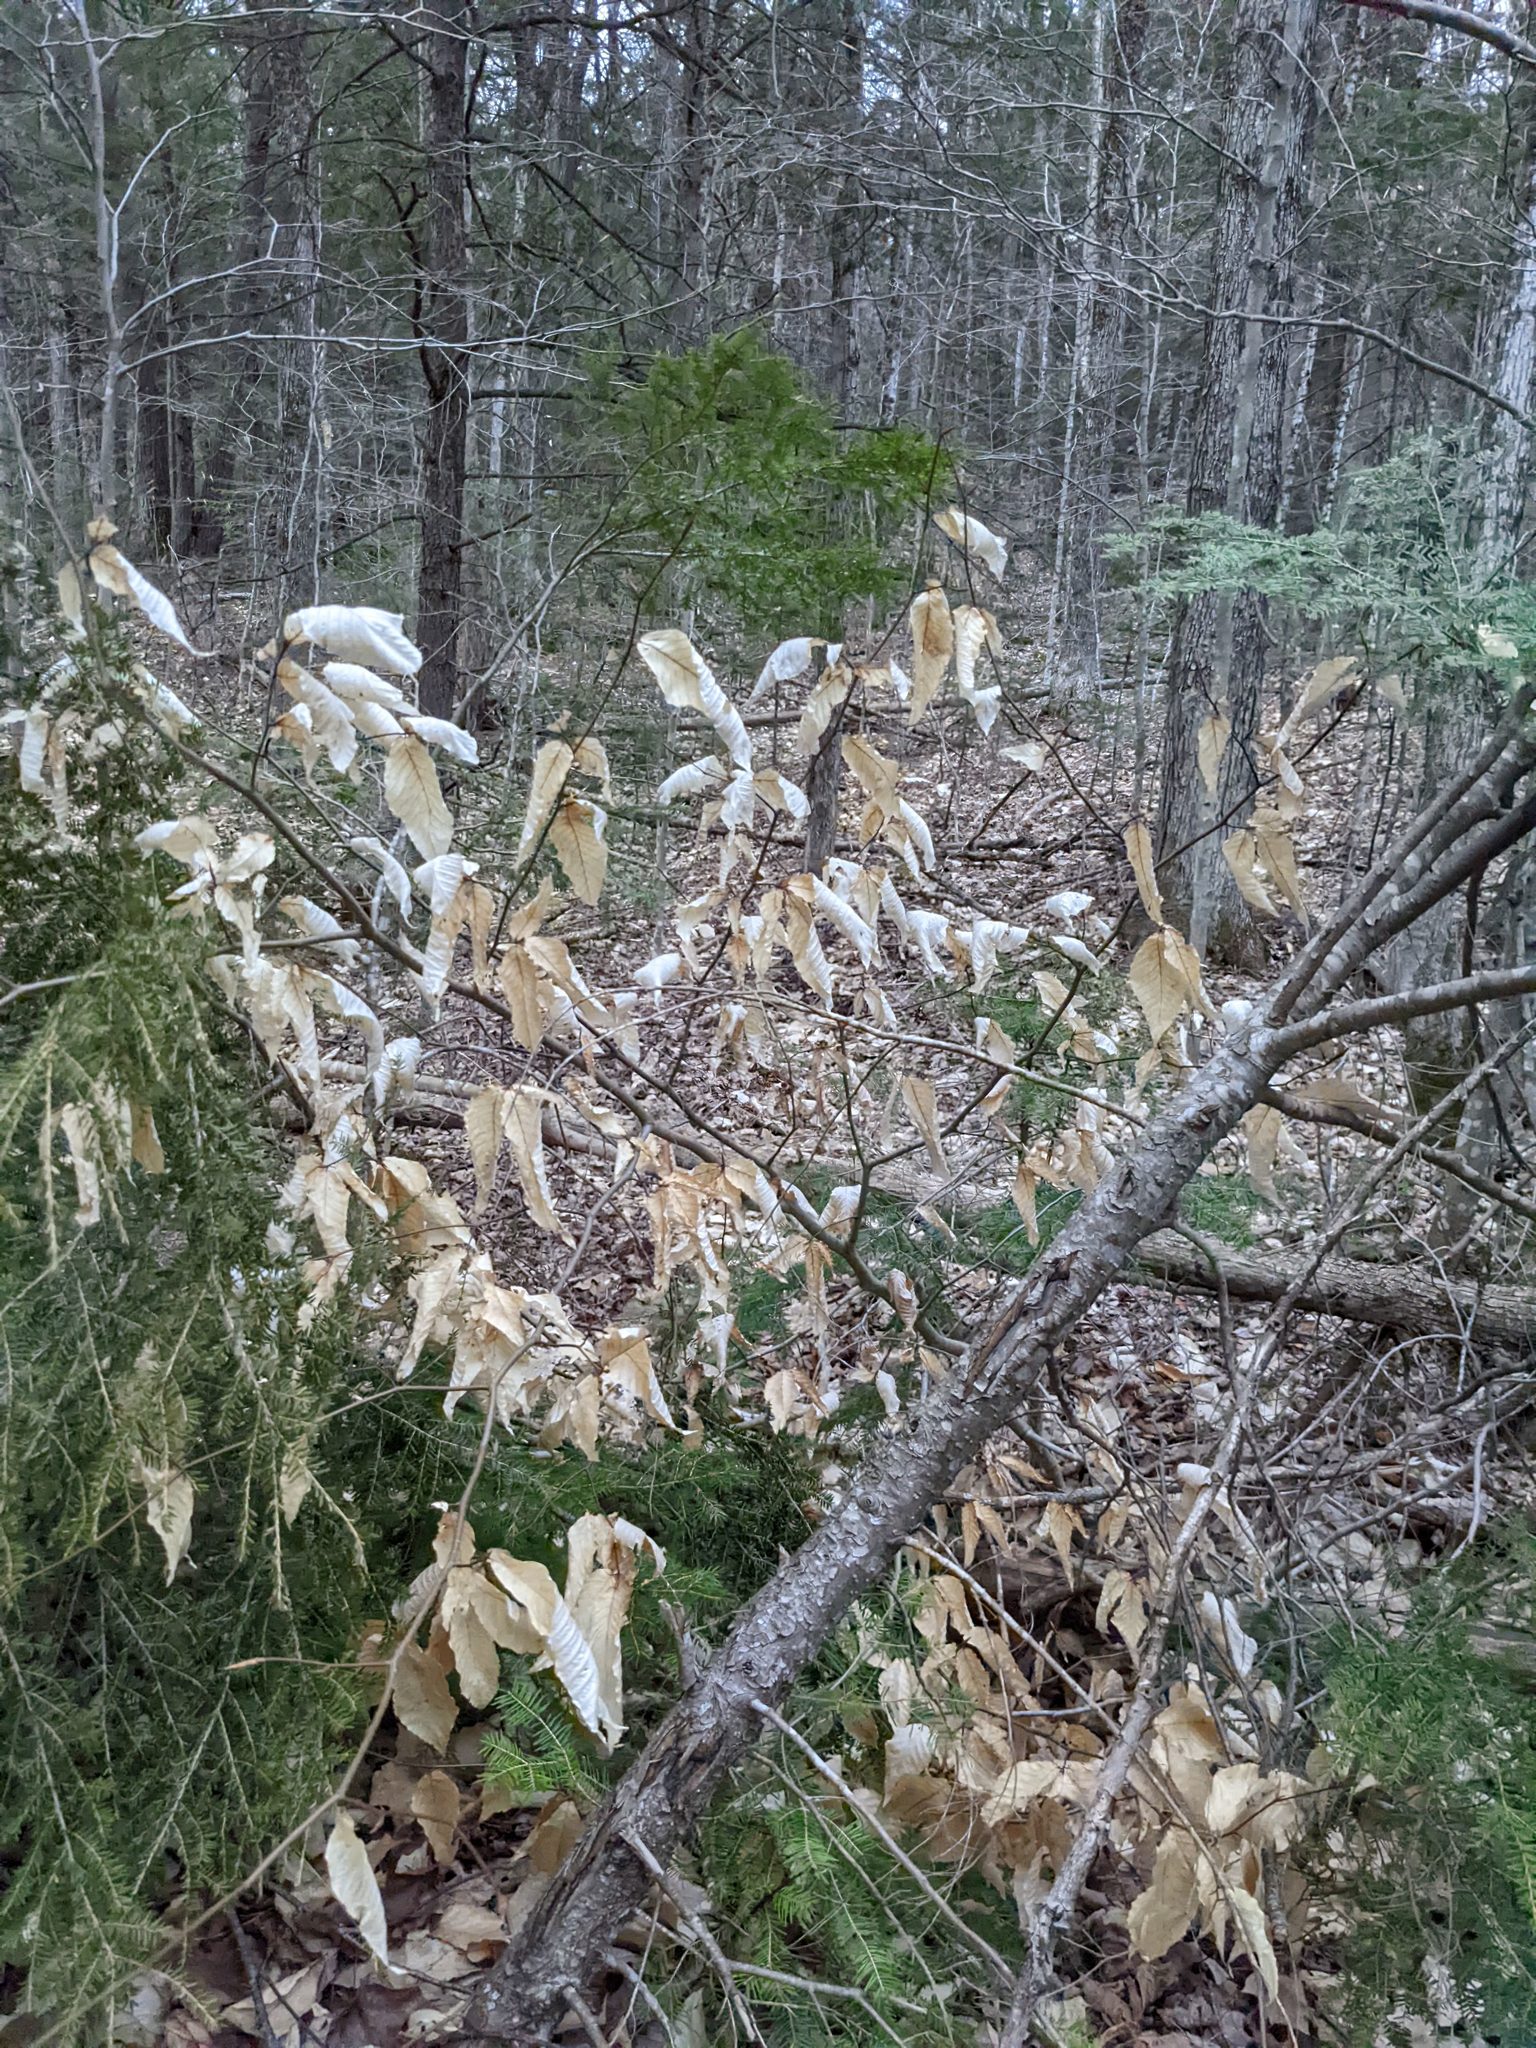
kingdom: Plantae
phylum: Tracheophyta
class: Magnoliopsida
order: Fagales
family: Fagaceae
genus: Fagus
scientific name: Fagus grandifolia
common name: American beech
